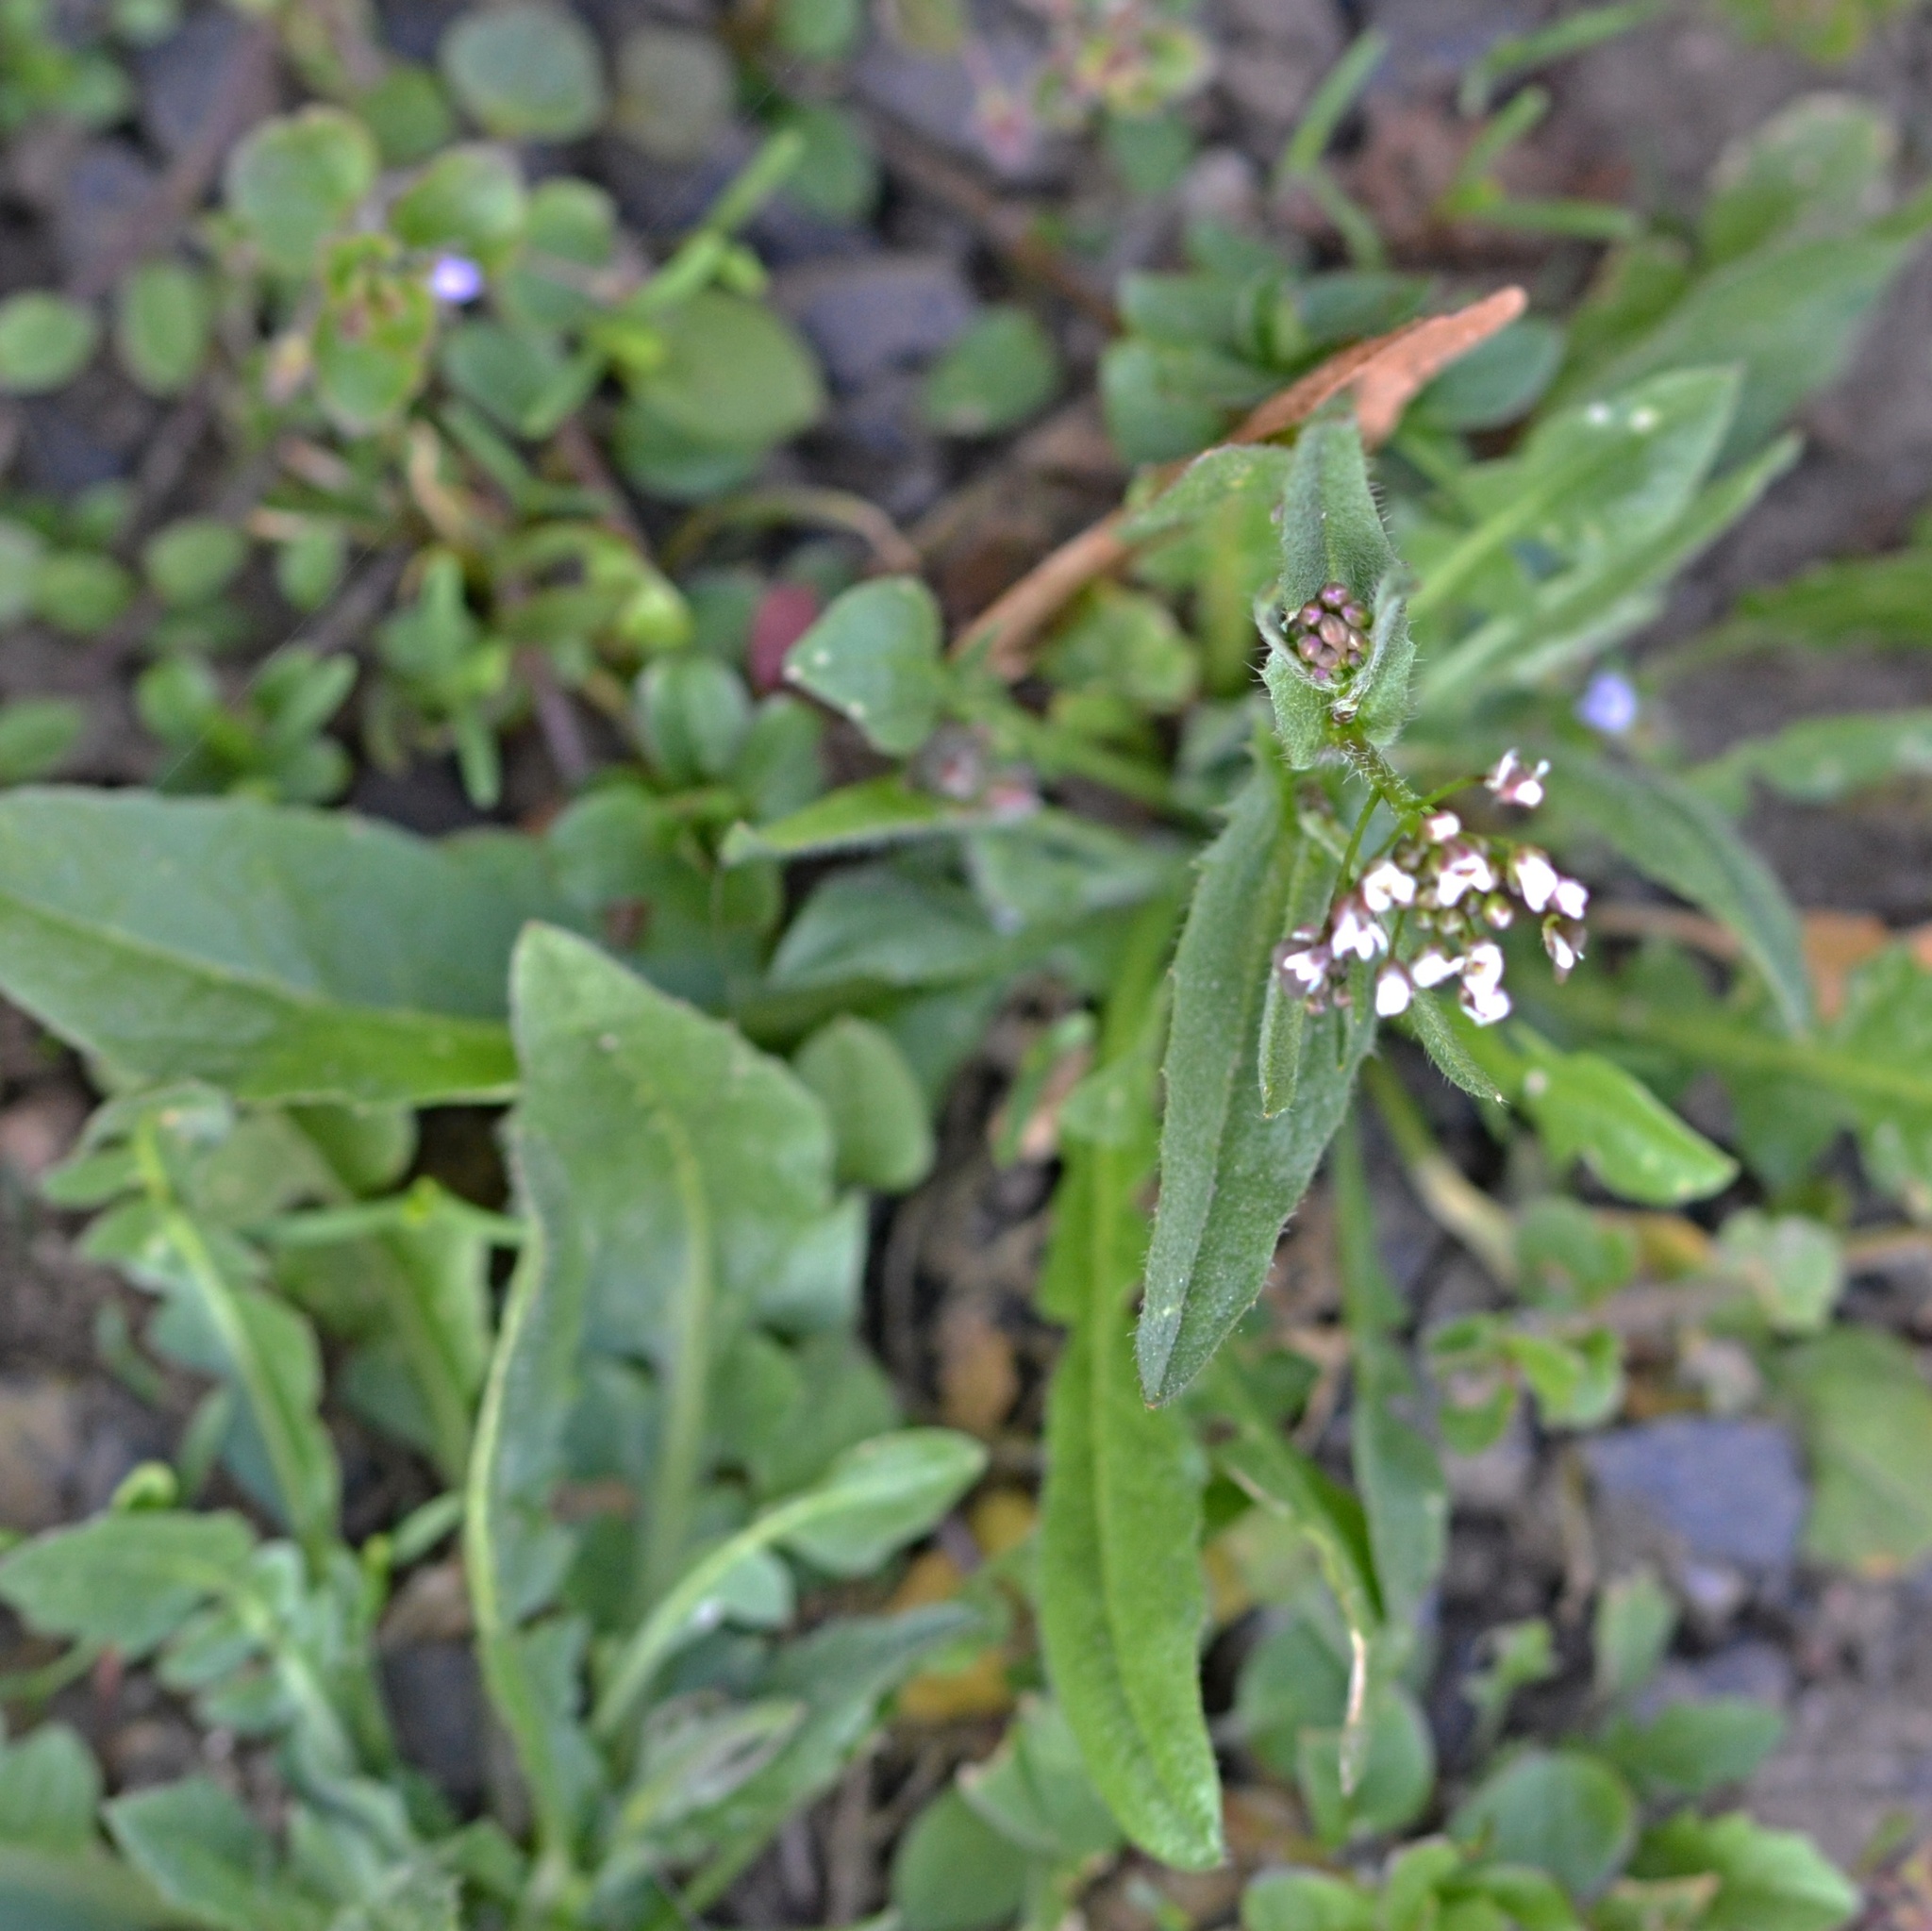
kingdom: Plantae
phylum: Tracheophyta
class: Magnoliopsida
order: Brassicales
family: Brassicaceae
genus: Capsella
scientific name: Capsella bursa-pastoris
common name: Shepherd's purse
